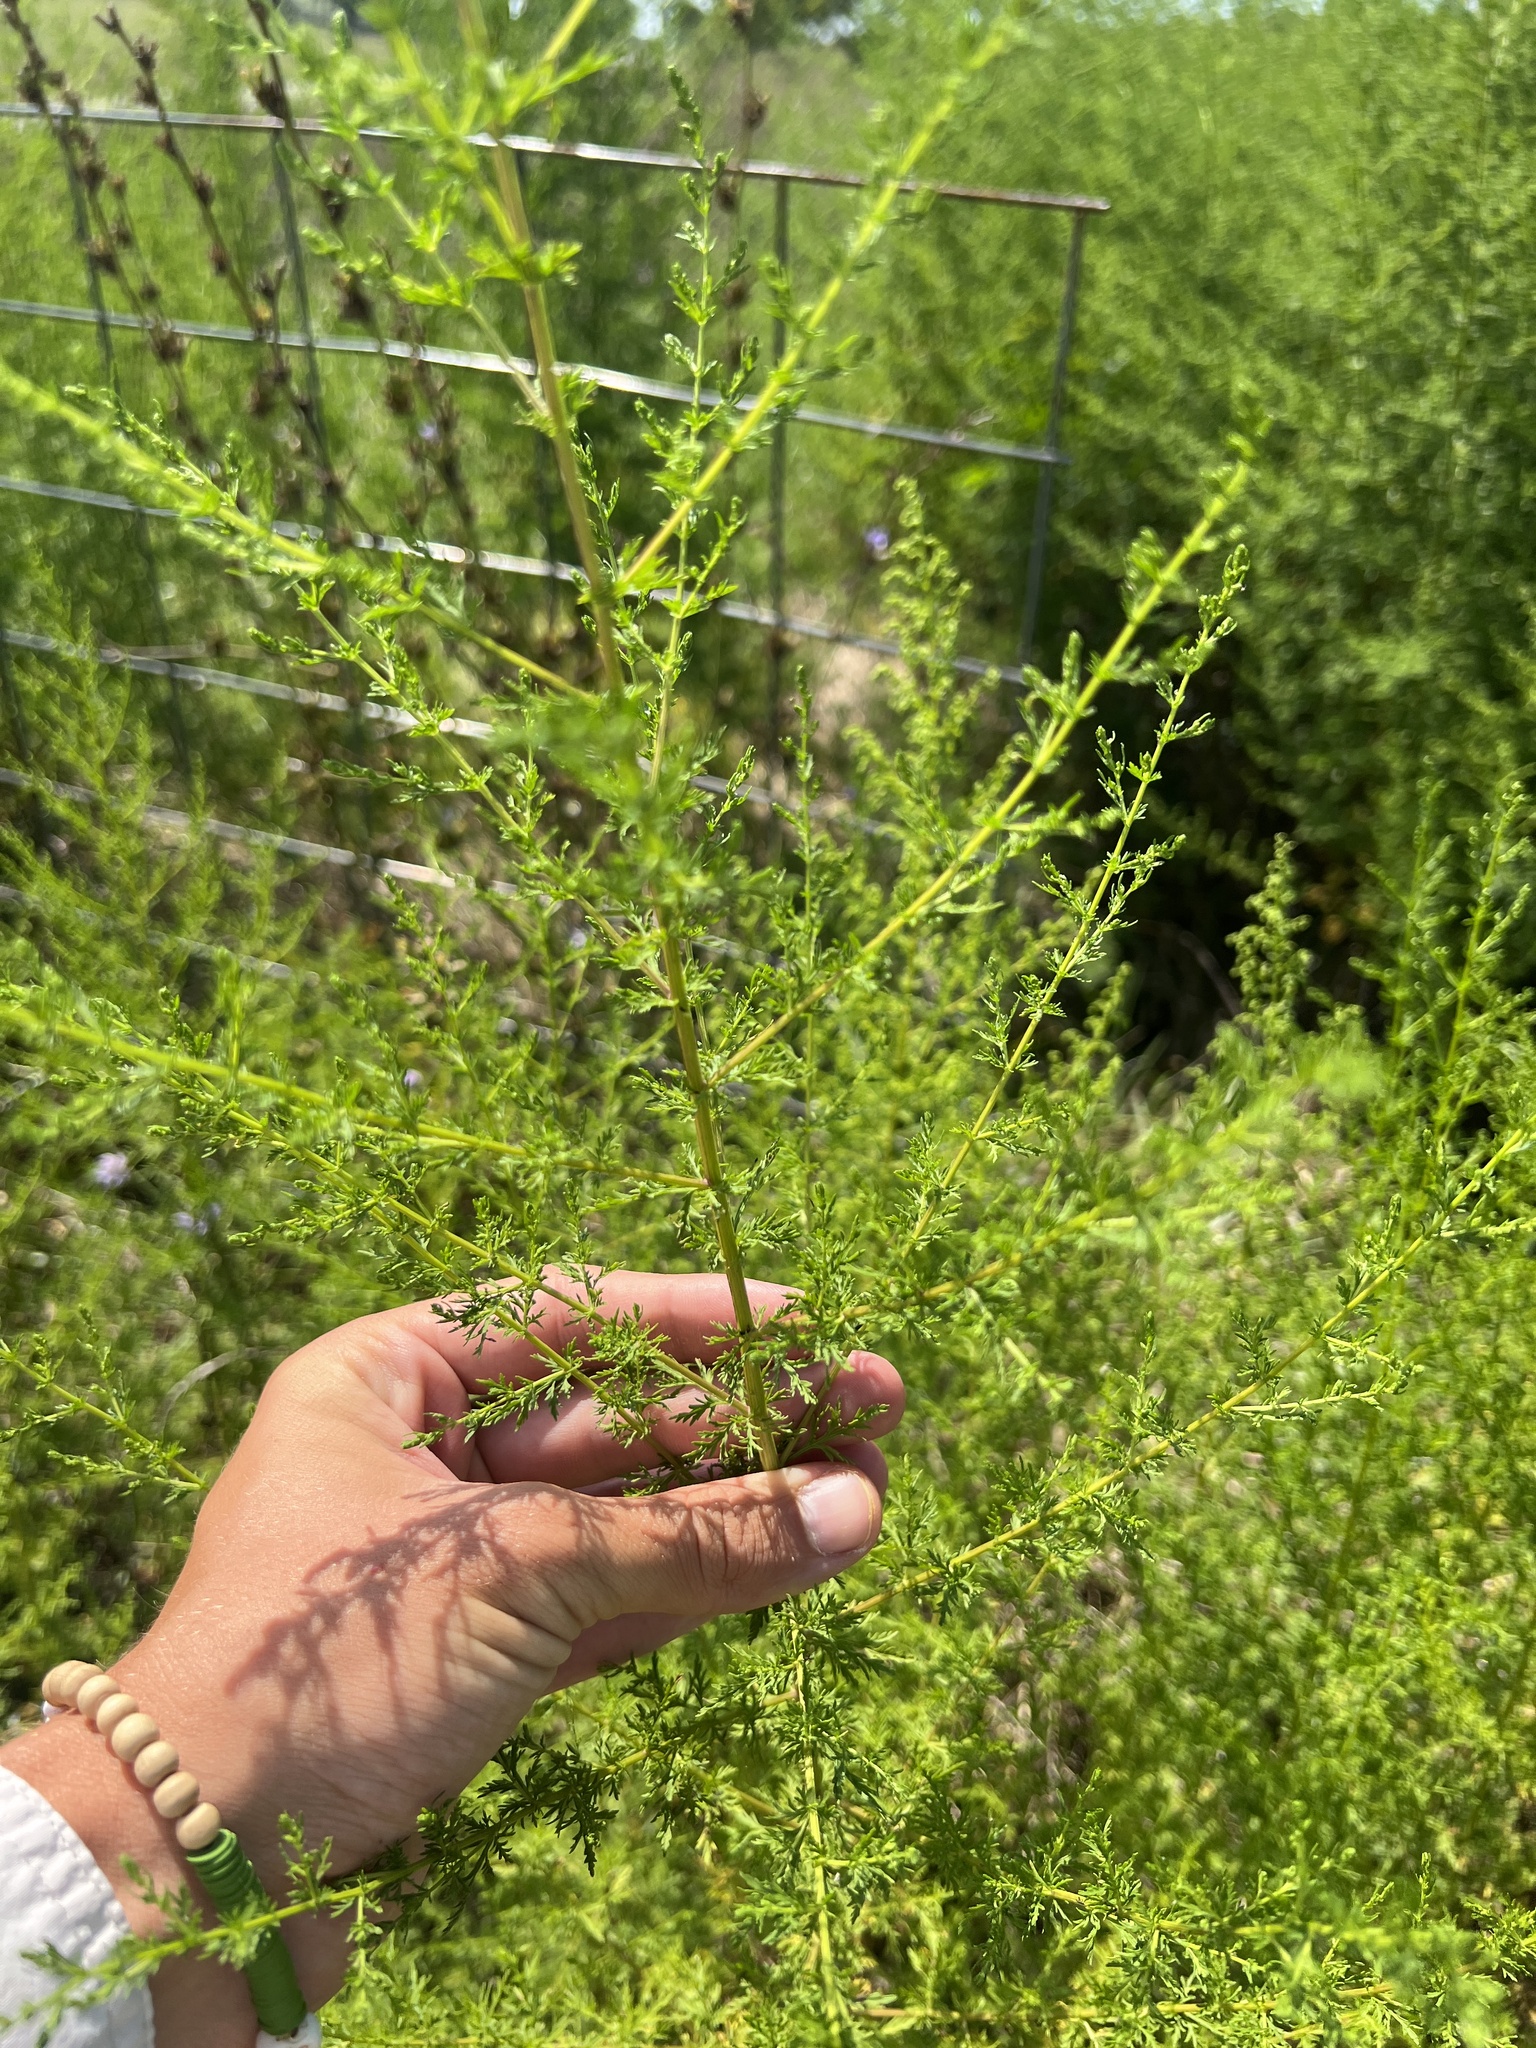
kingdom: Plantae
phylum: Tracheophyta
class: Magnoliopsida
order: Asterales
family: Asteraceae
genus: Artemisia
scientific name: Artemisia annua
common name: Sweet sagewort
